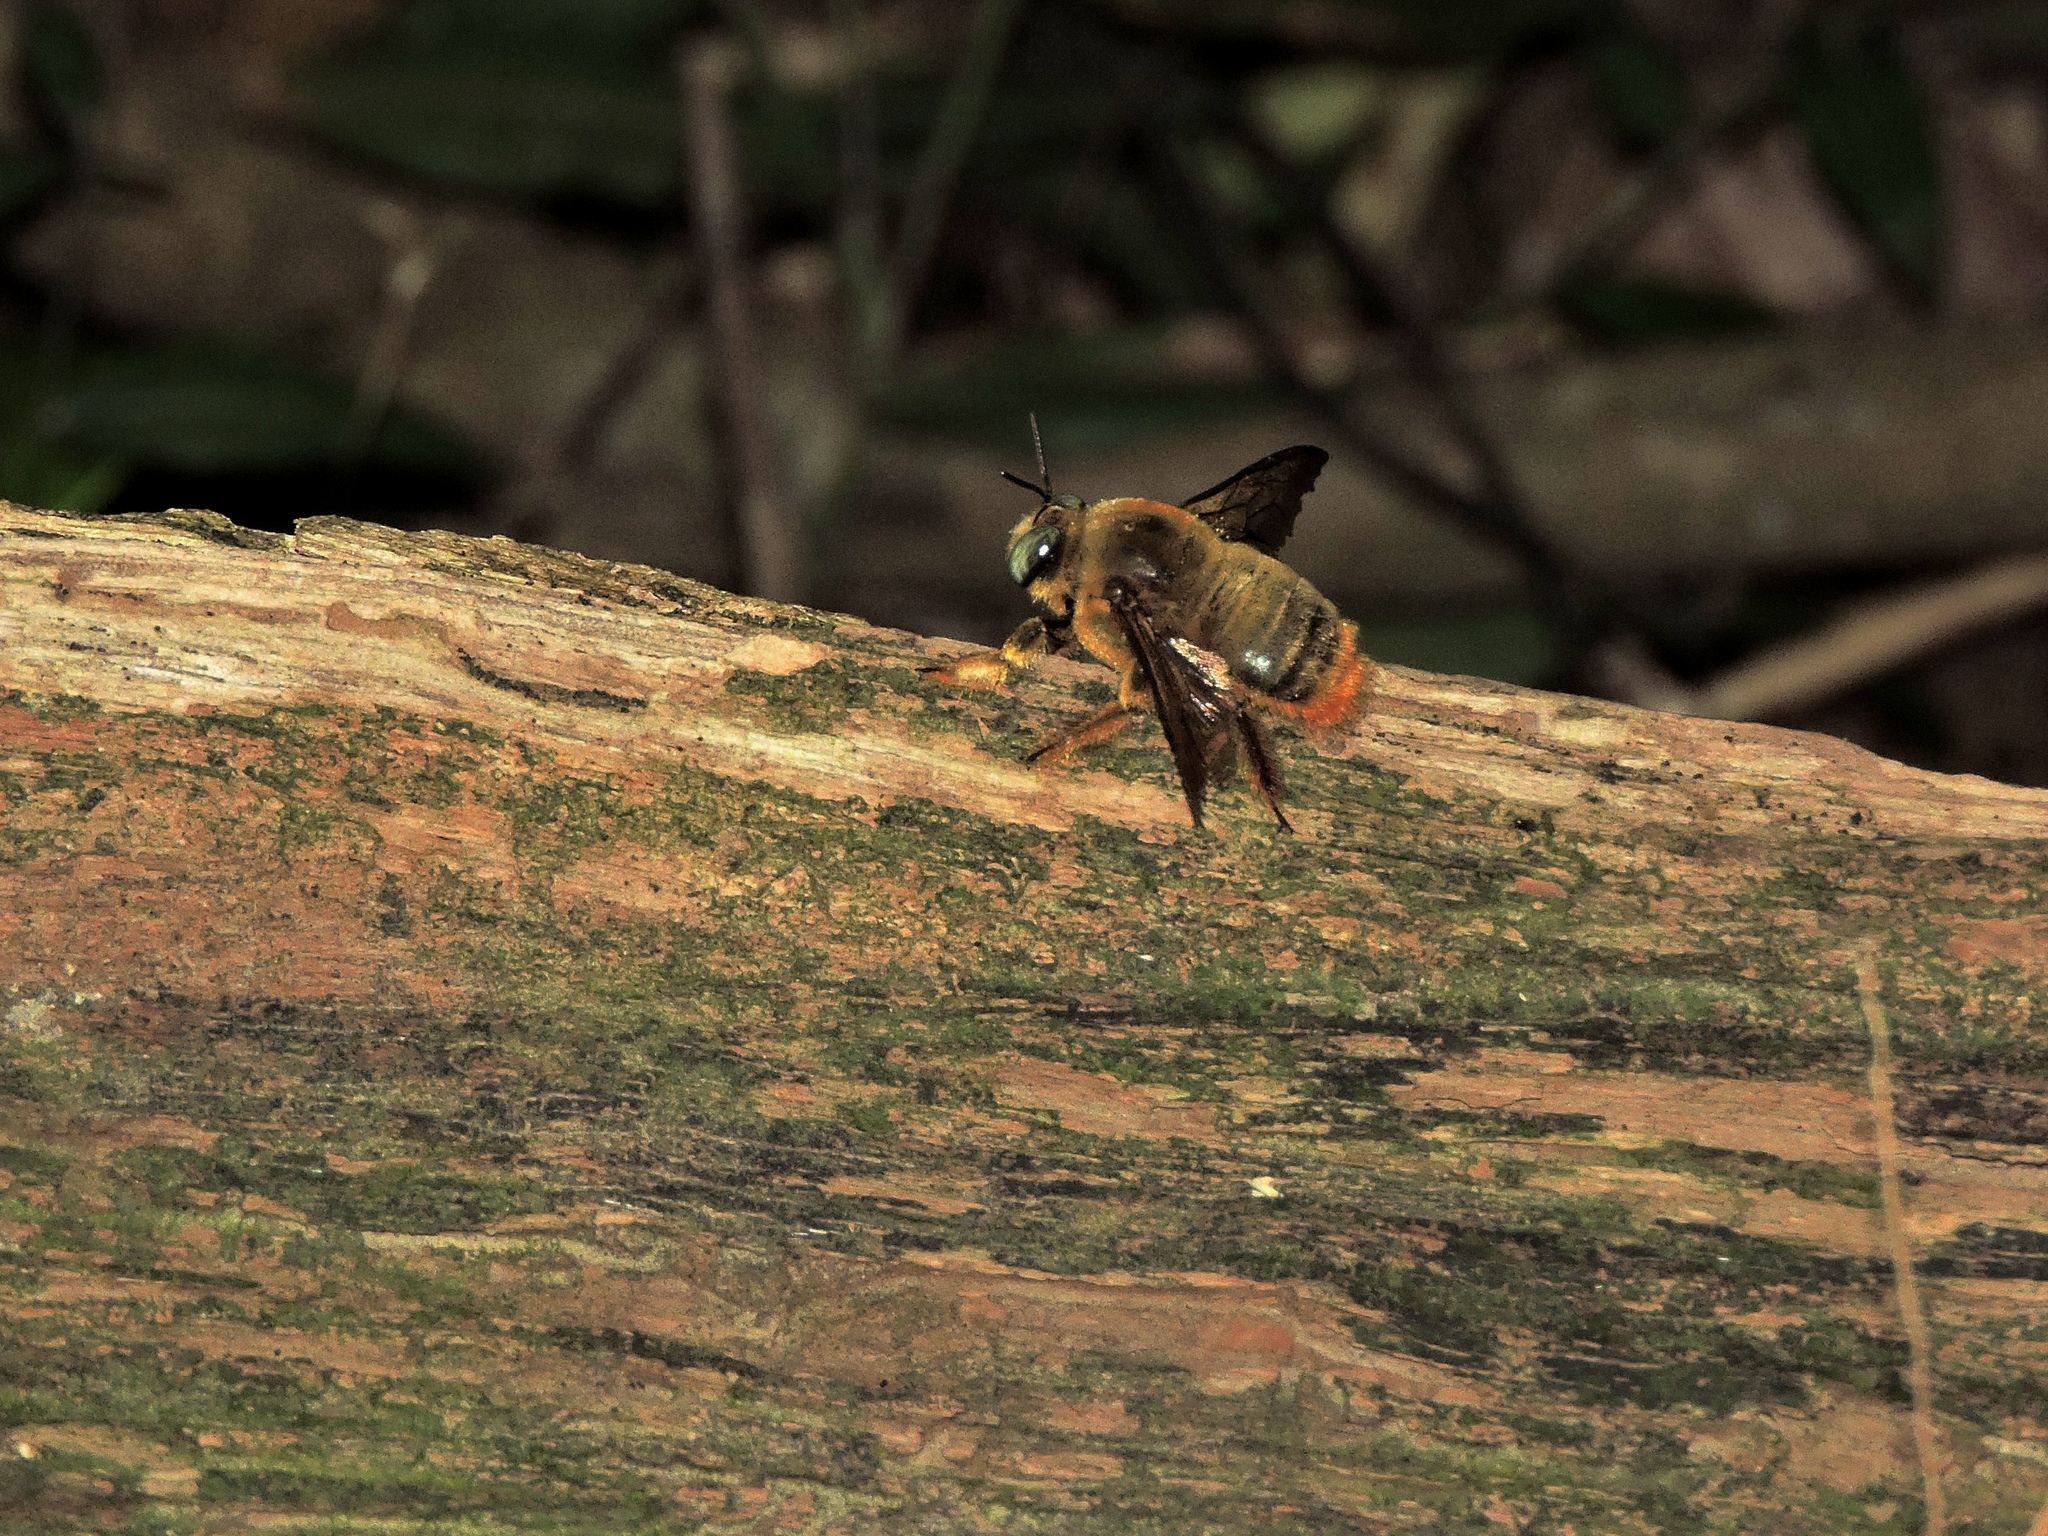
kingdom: Animalia
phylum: Arthropoda
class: Insecta
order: Hymenoptera
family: Apidae
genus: Xylocopa
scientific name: Xylocopa bomboides
